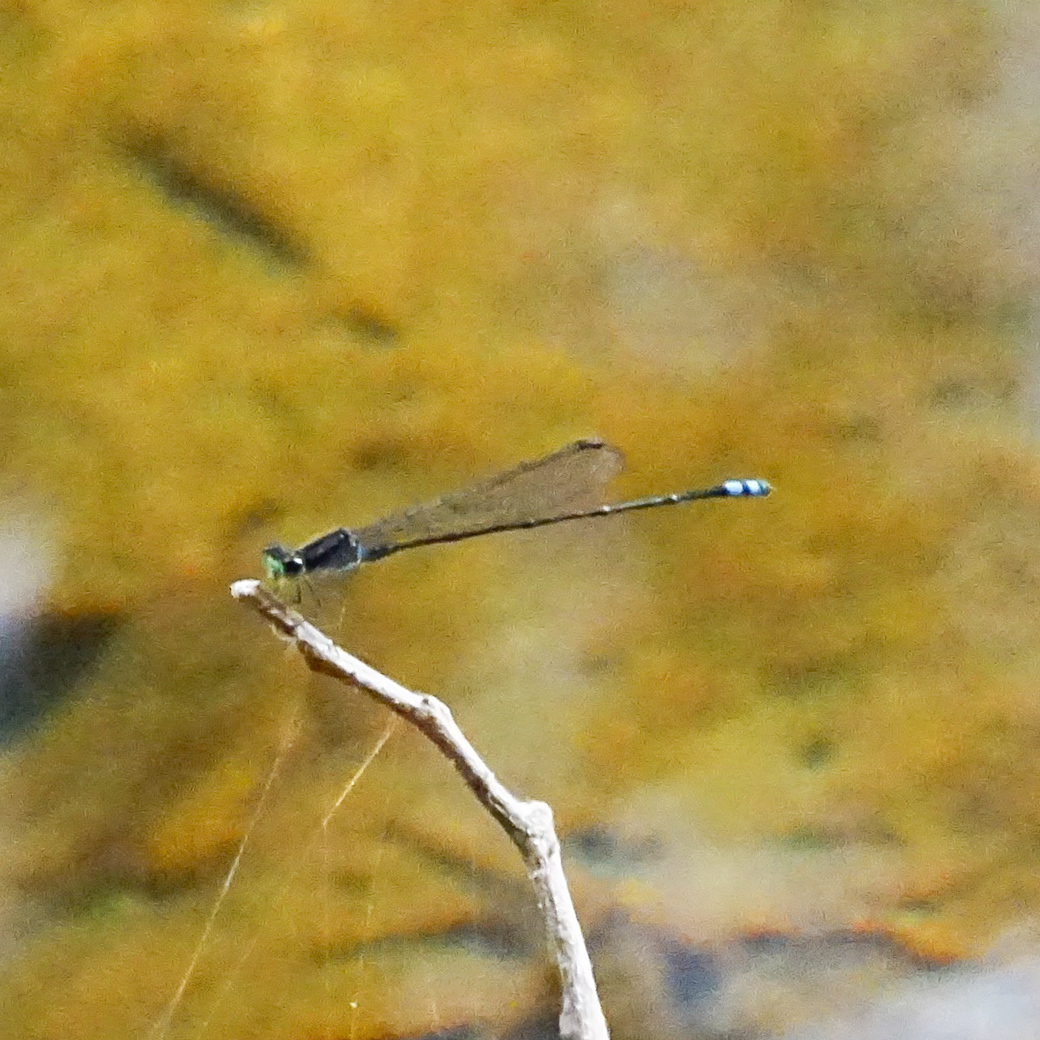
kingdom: Animalia
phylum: Arthropoda
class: Insecta
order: Odonata
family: Coenagrionidae
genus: Pseudagrion
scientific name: Pseudagrion indicum
